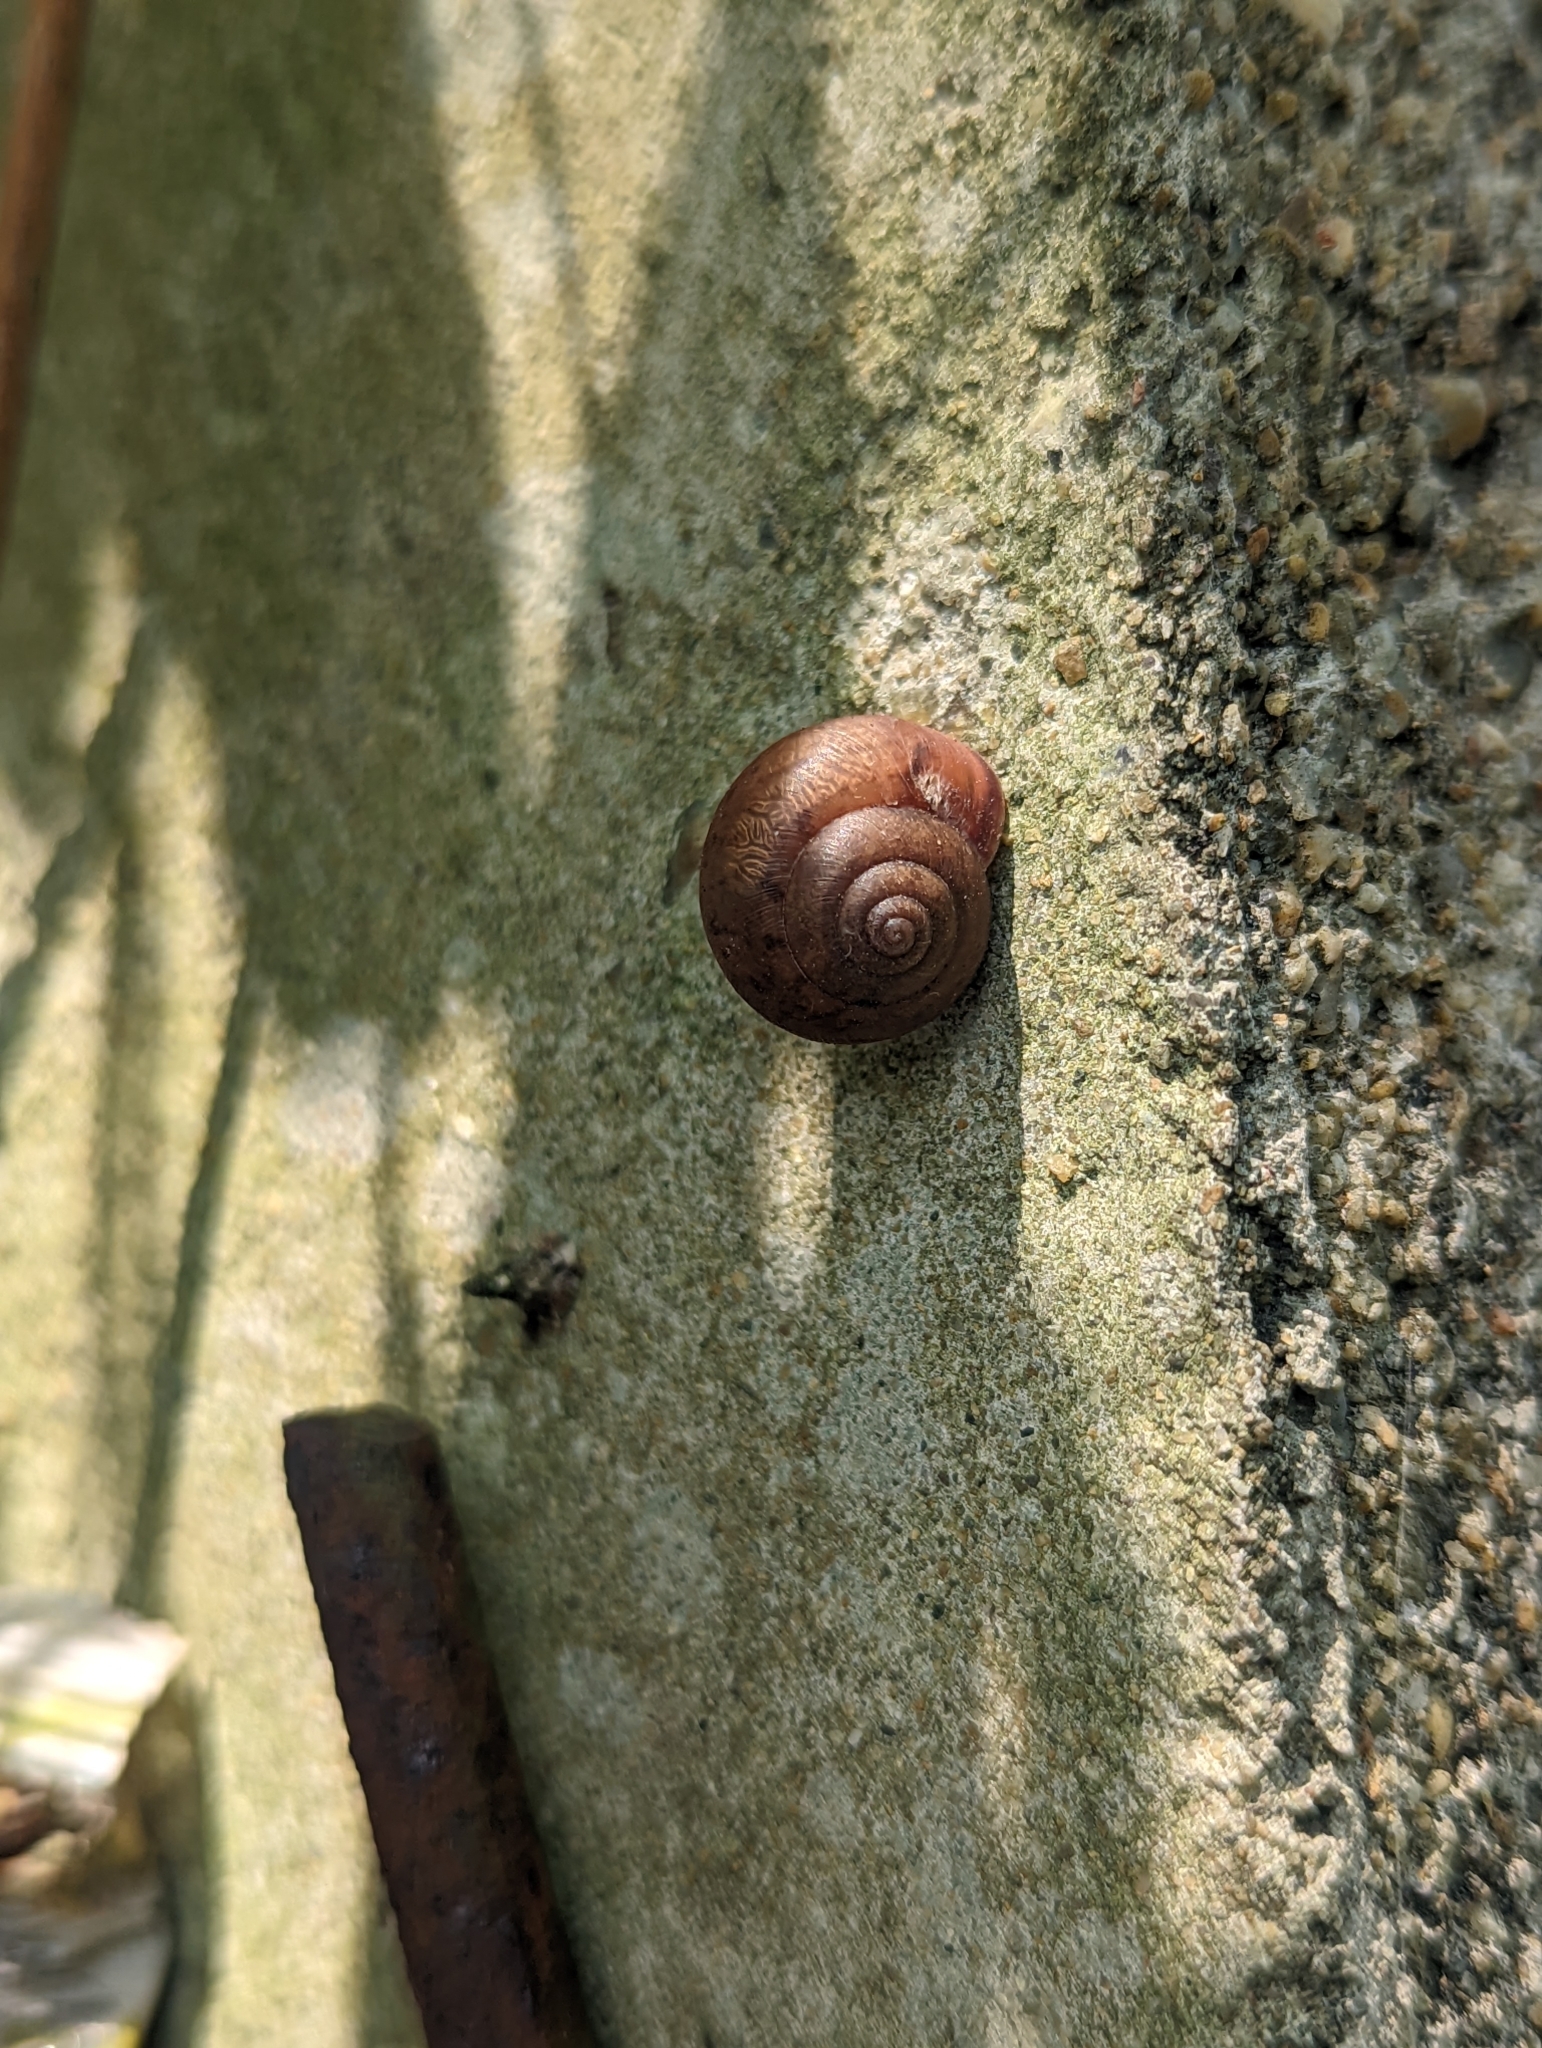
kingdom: Animalia
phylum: Mollusca
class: Gastropoda
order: Stylommatophora
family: Camaenidae
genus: Acusta
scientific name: Acusta tourannensis
